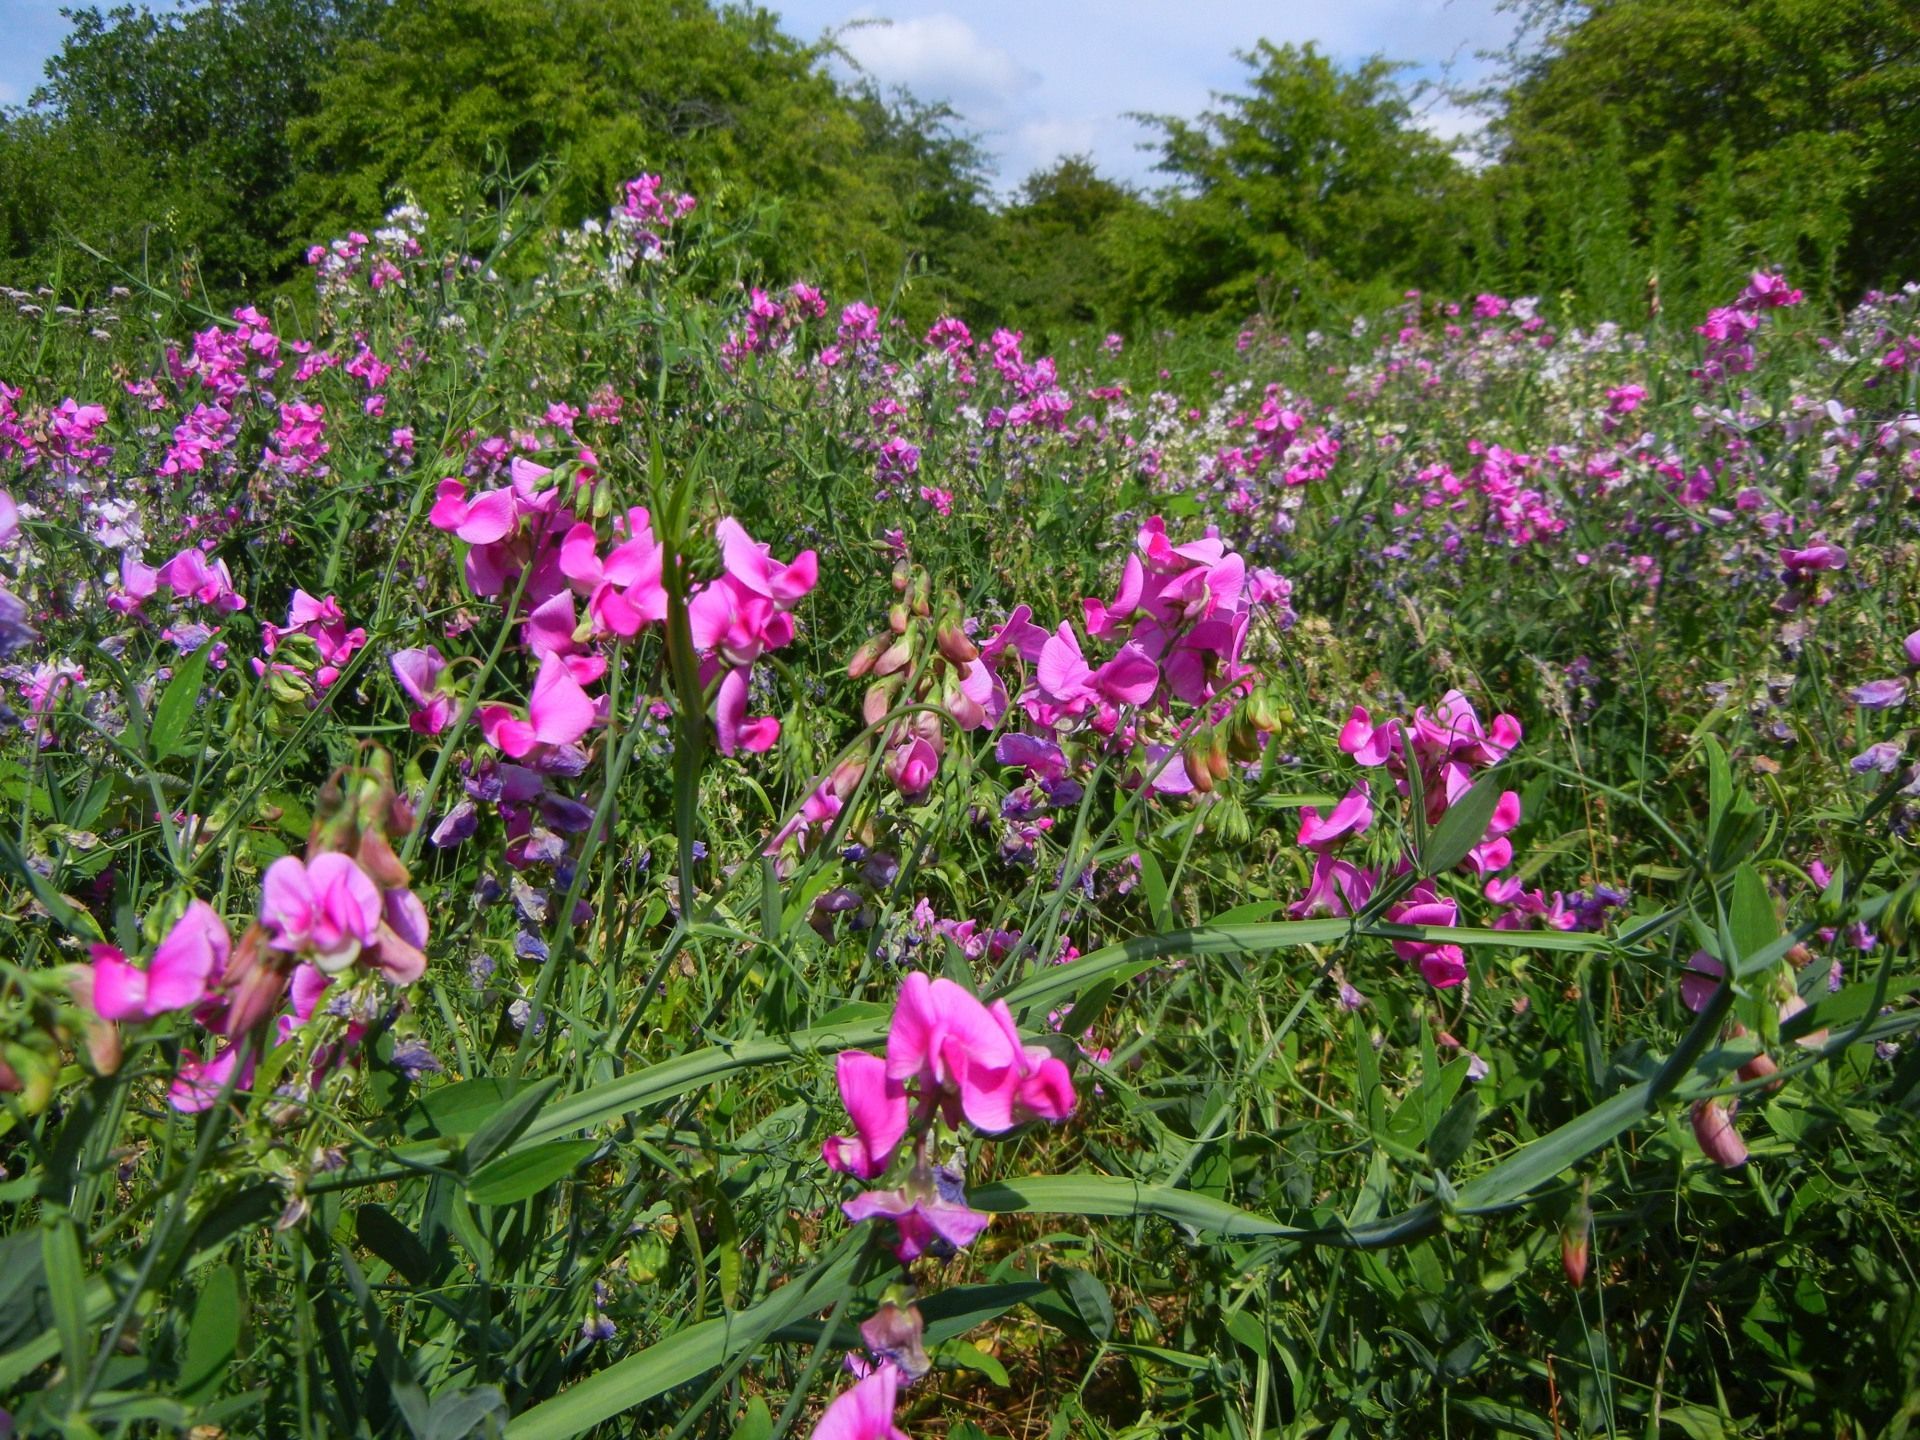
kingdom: Plantae
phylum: Tracheophyta
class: Magnoliopsida
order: Fabales
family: Fabaceae
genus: Lathyrus
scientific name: Lathyrus latifolius
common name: Perennial pea
